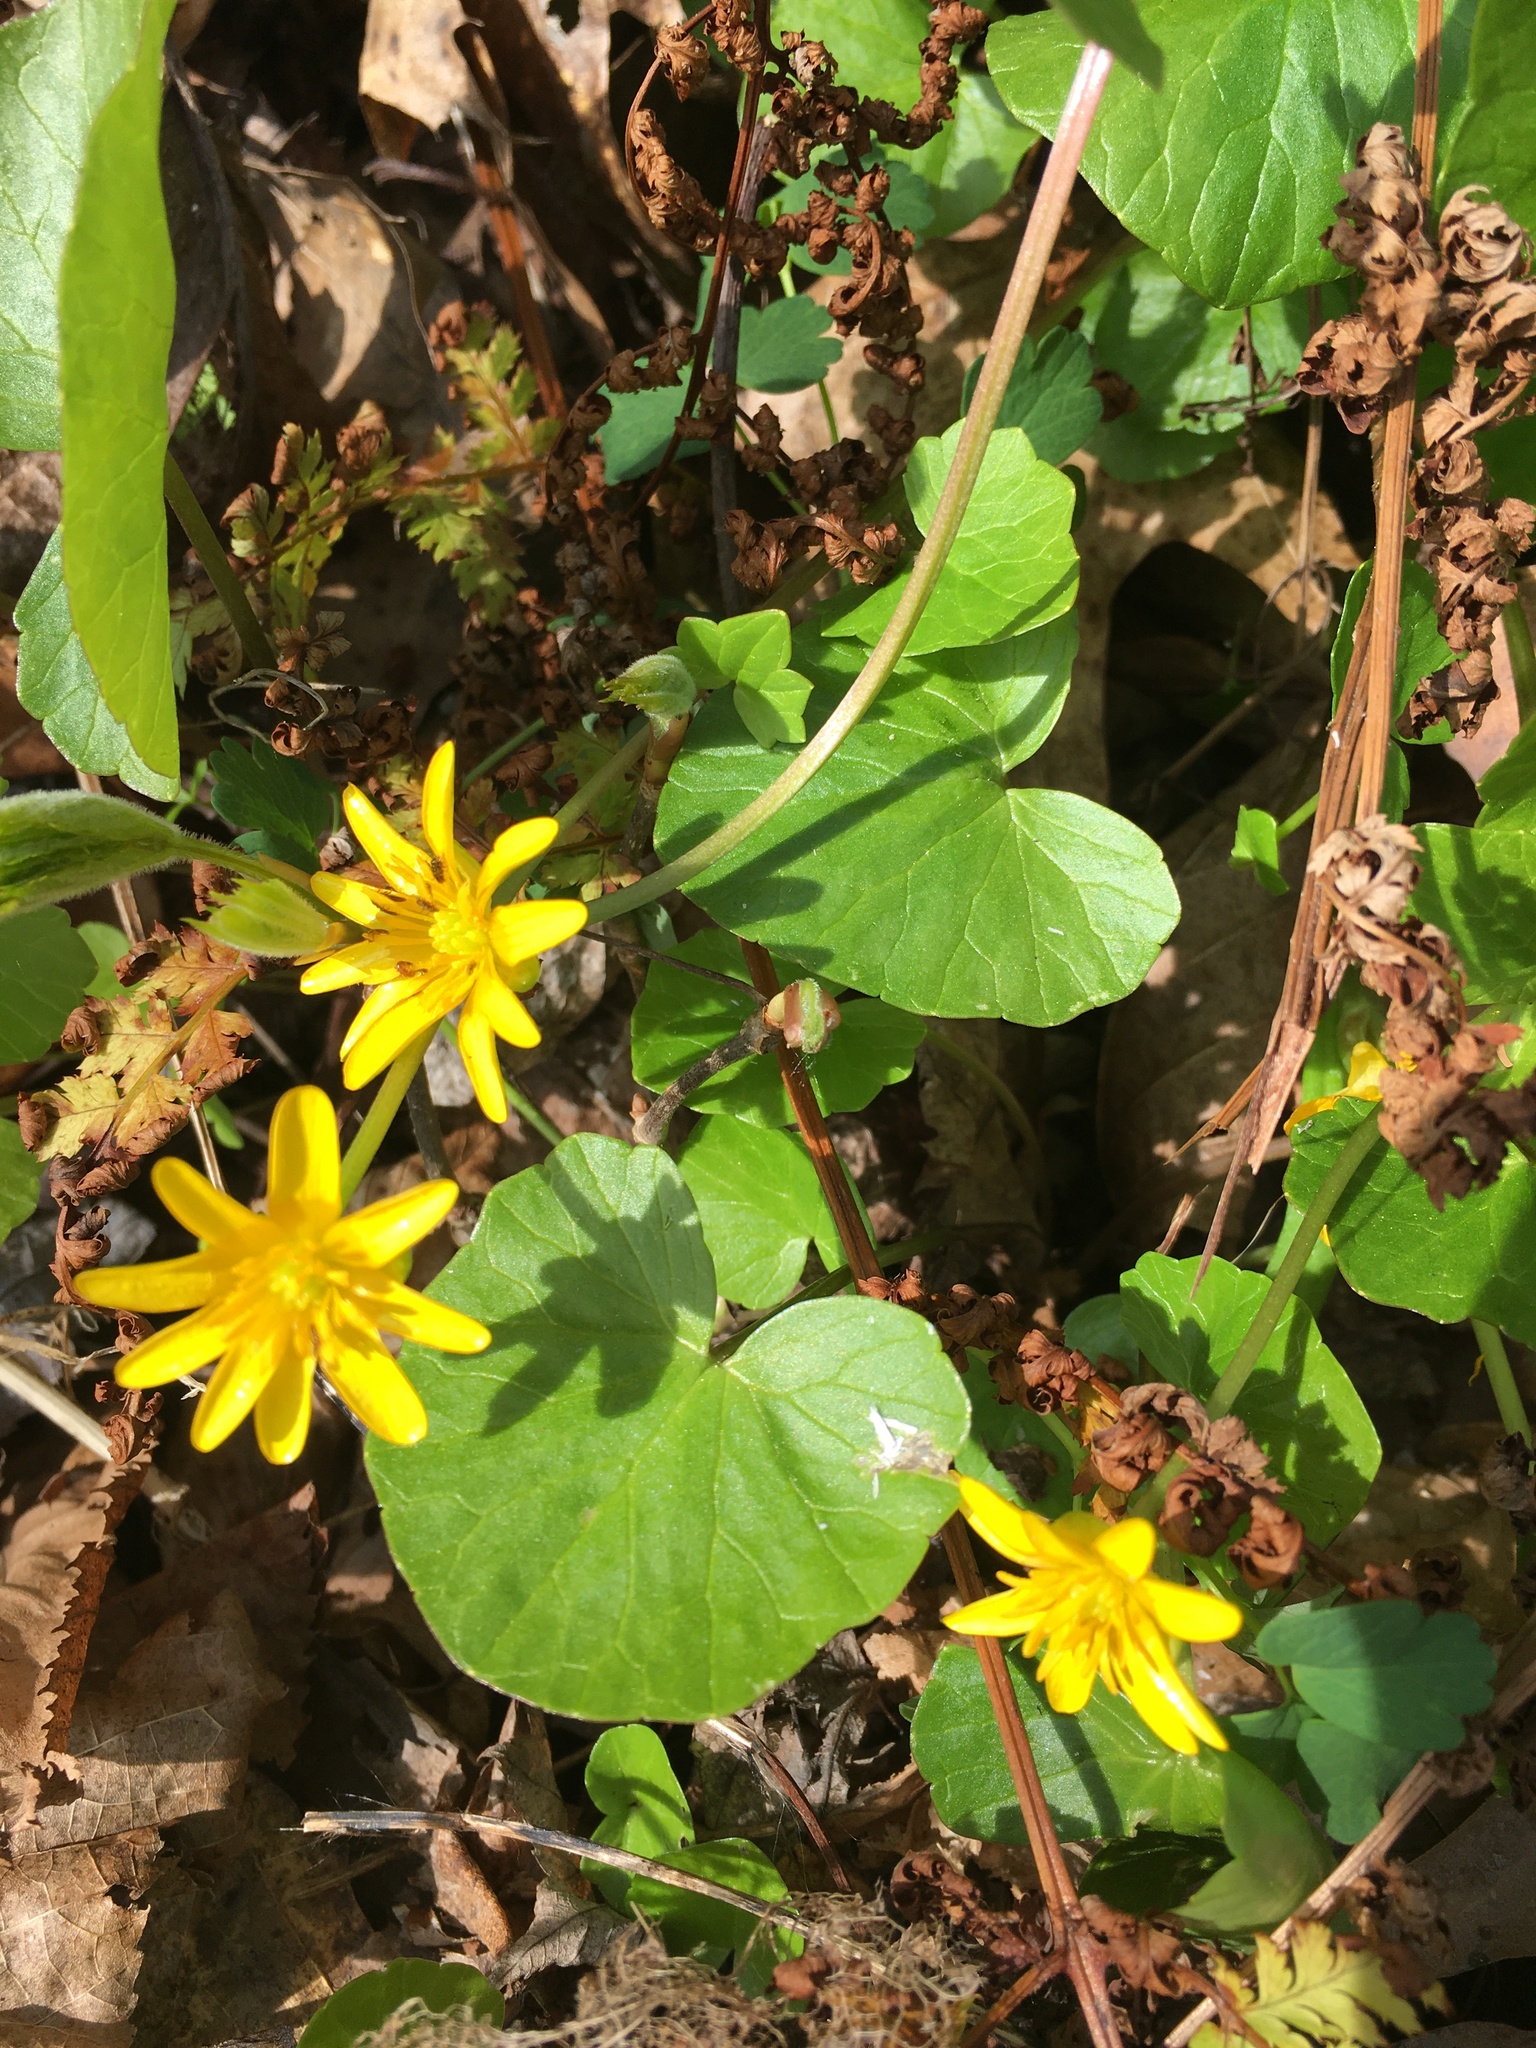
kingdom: Plantae
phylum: Tracheophyta
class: Magnoliopsida
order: Ranunculales
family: Ranunculaceae
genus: Ficaria
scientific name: Ficaria verna
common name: Lesser celandine
